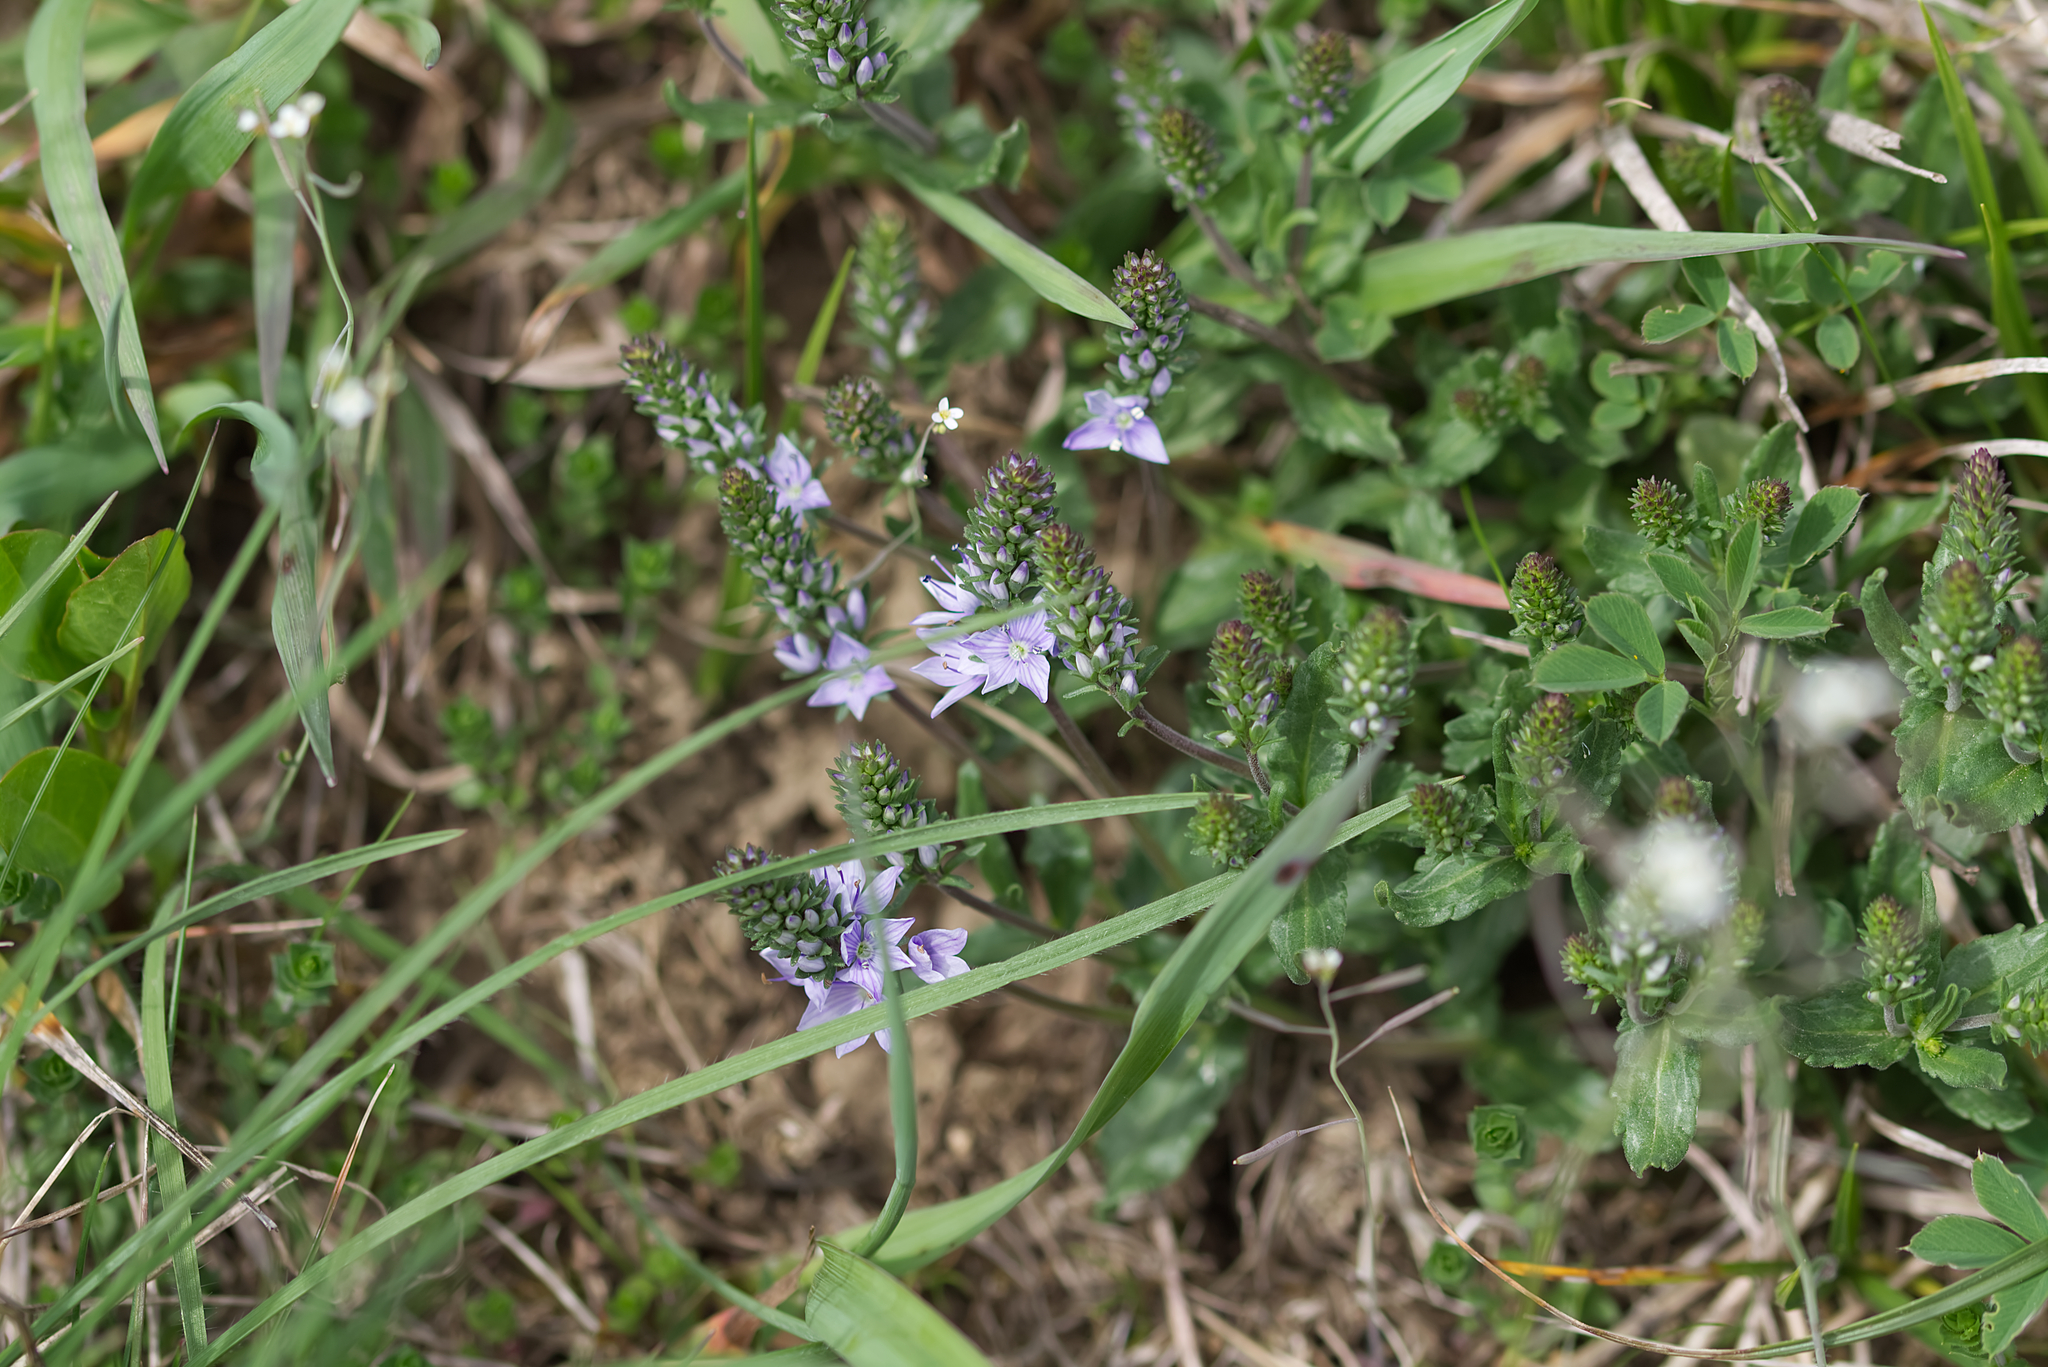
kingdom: Plantae
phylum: Tracheophyta
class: Magnoliopsida
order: Lamiales
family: Plantaginaceae
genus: Veronica
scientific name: Veronica prostrata
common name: Prostrate speedwell
